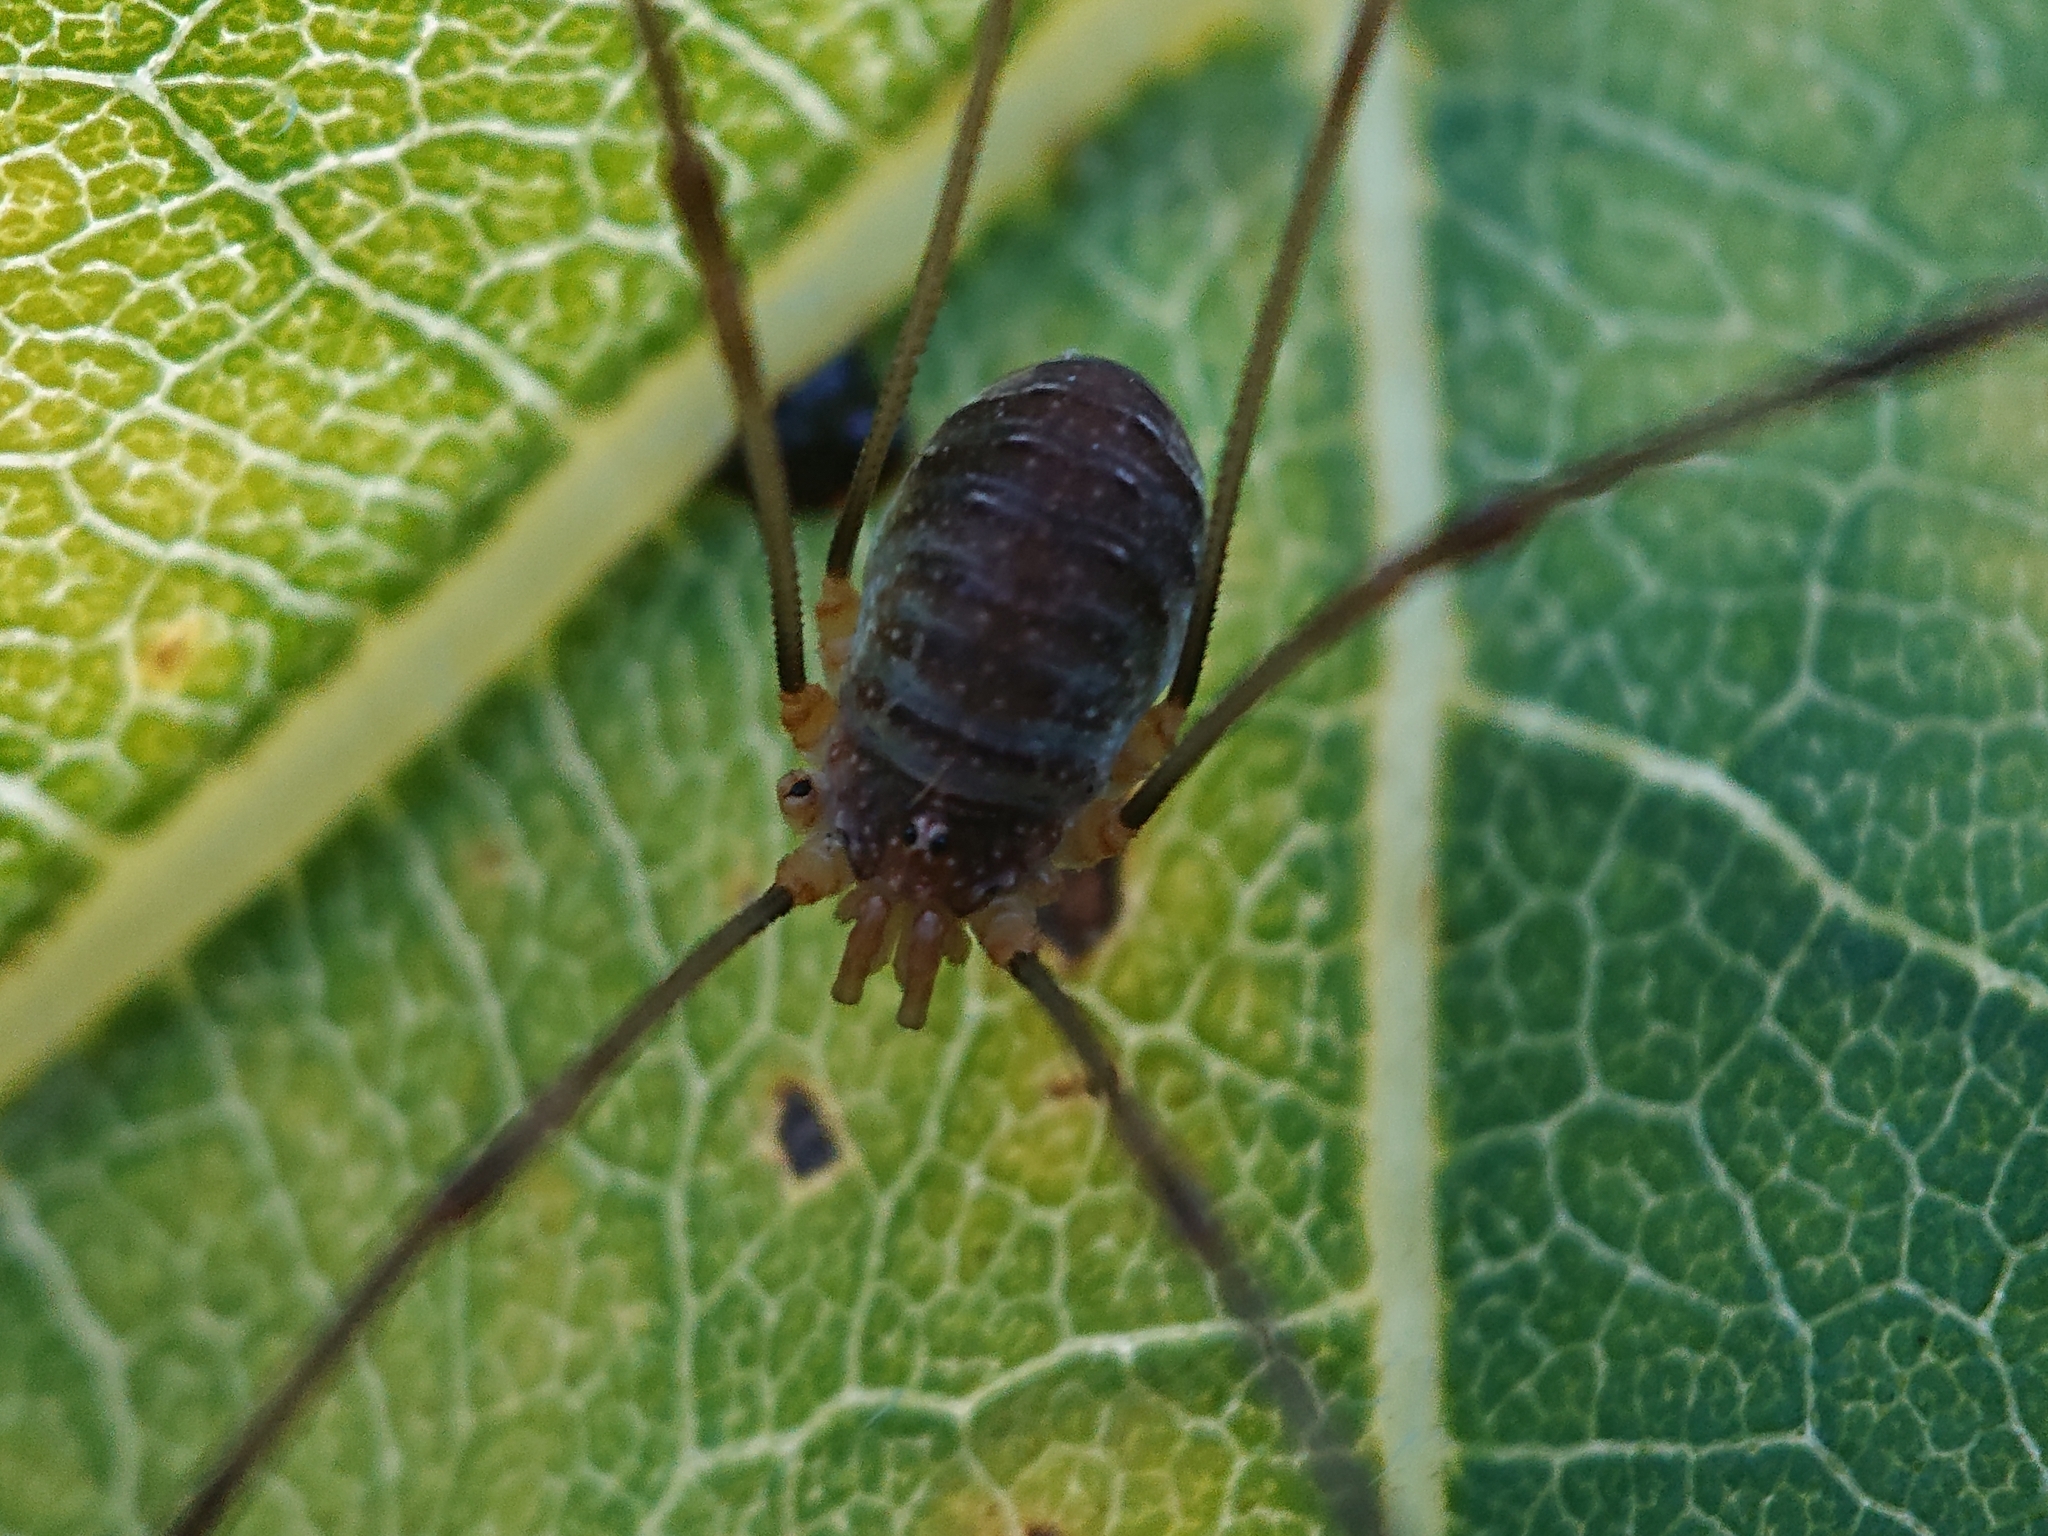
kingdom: Animalia
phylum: Arthropoda
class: Arachnida
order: Opiliones
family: Phalangiidae
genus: Opilio
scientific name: Opilio canestrinii
